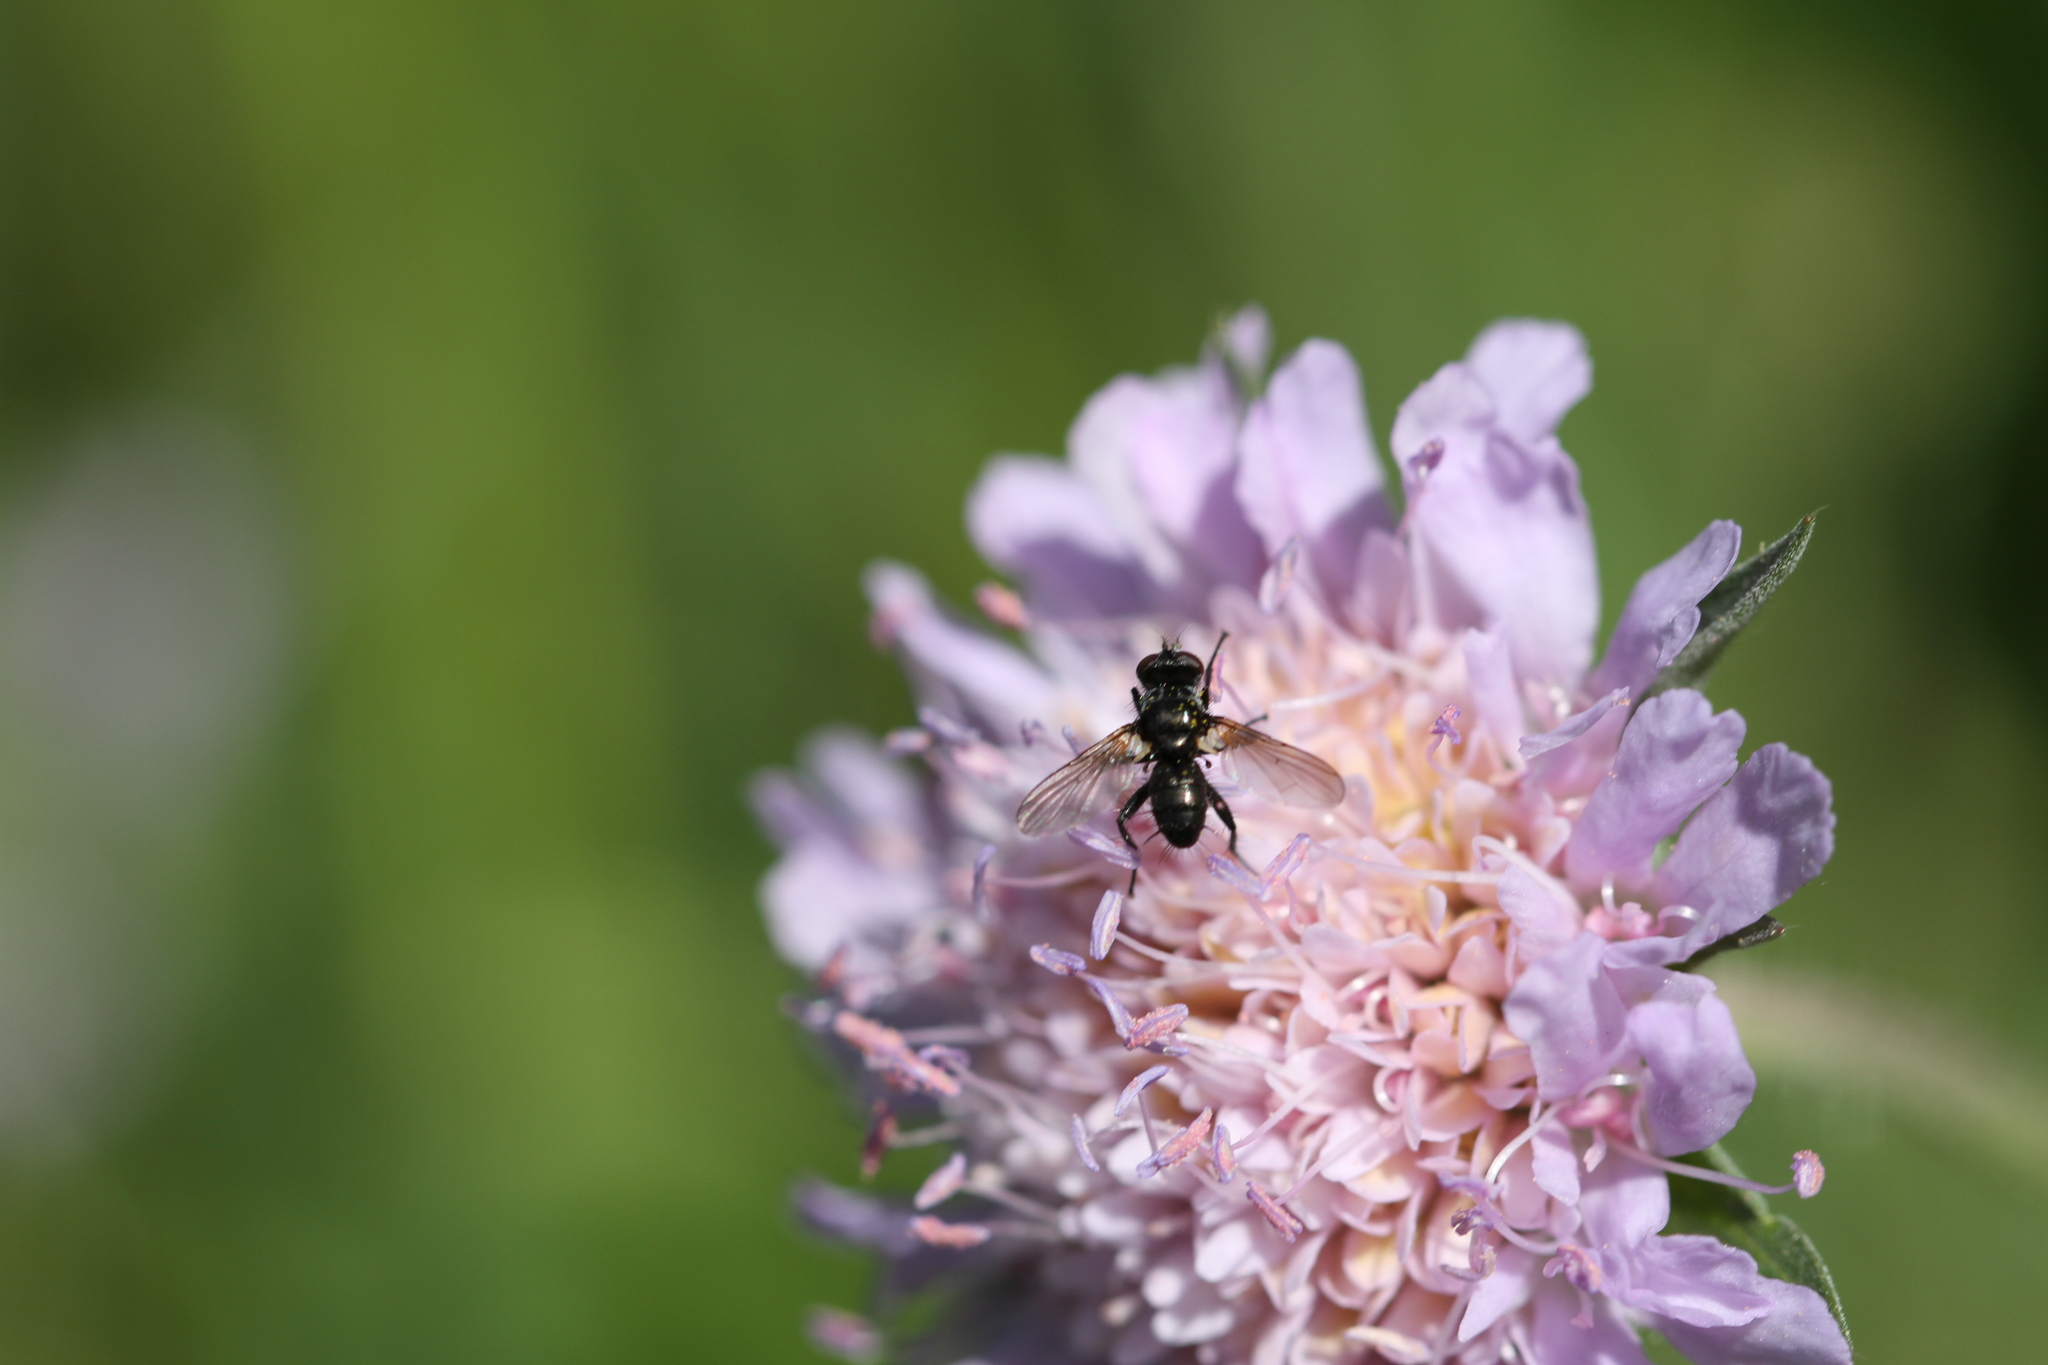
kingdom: Animalia
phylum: Arthropoda
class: Insecta
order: Diptera
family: Tachinidae
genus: Phania
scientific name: Phania funesta
